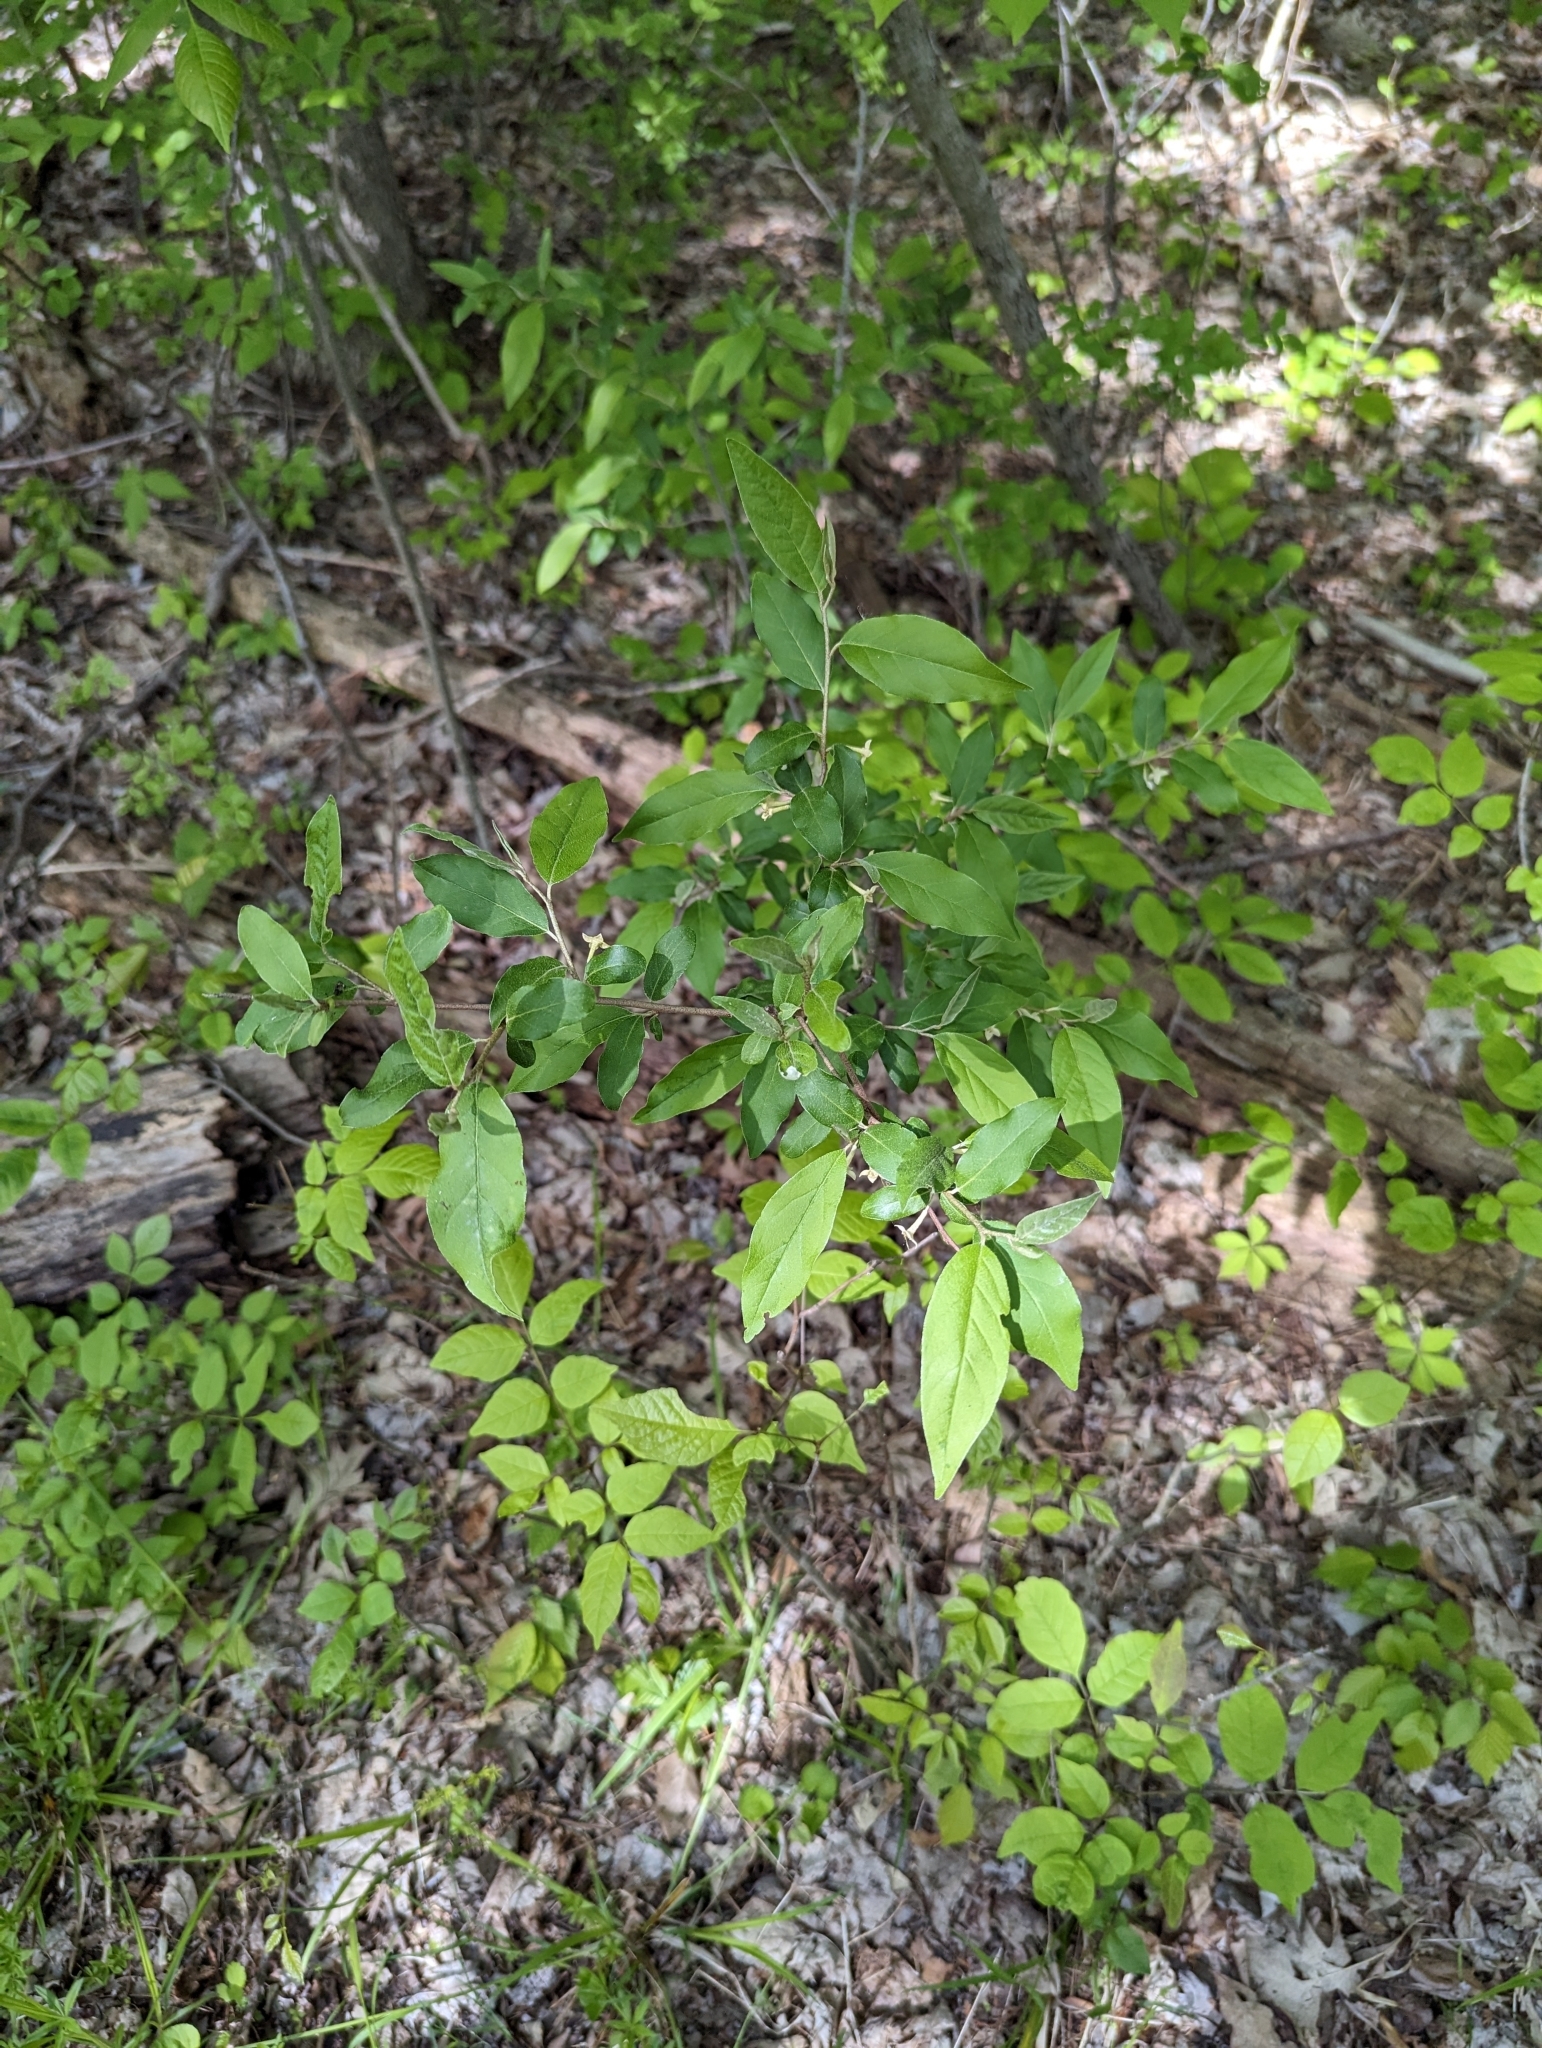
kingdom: Plantae
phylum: Tracheophyta
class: Magnoliopsida
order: Rosales
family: Elaeagnaceae
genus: Elaeagnus
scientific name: Elaeagnus umbellata
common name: Autumn olive
